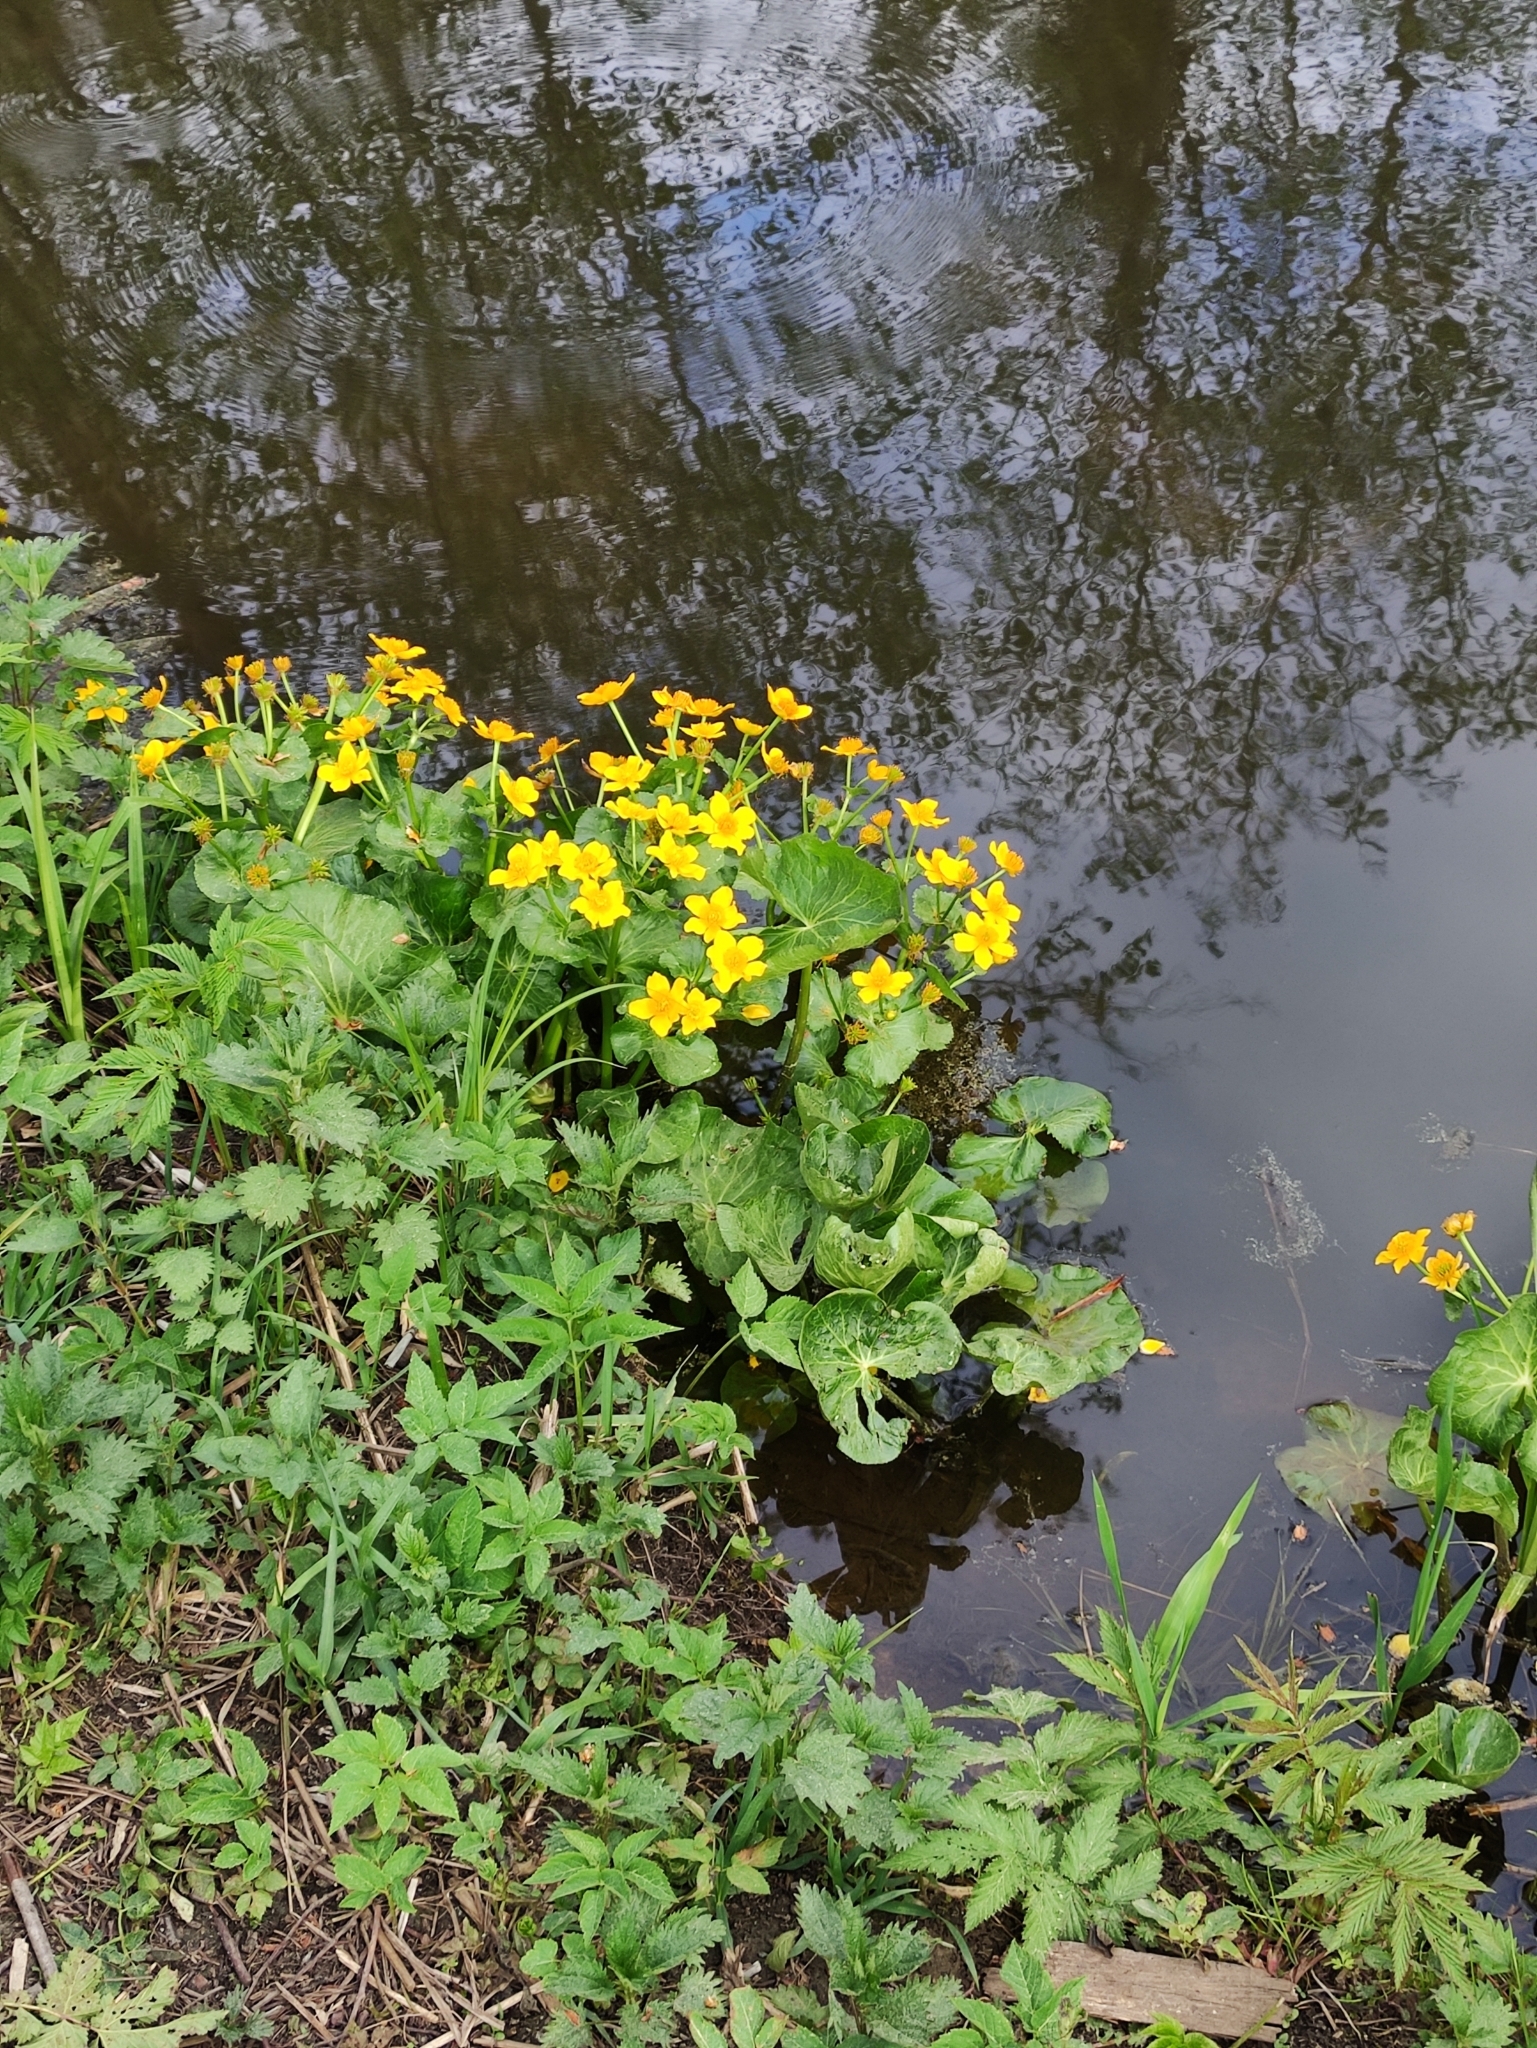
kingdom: Plantae
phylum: Tracheophyta
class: Magnoliopsida
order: Ranunculales
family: Ranunculaceae
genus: Caltha
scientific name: Caltha palustris
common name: Marsh marigold
